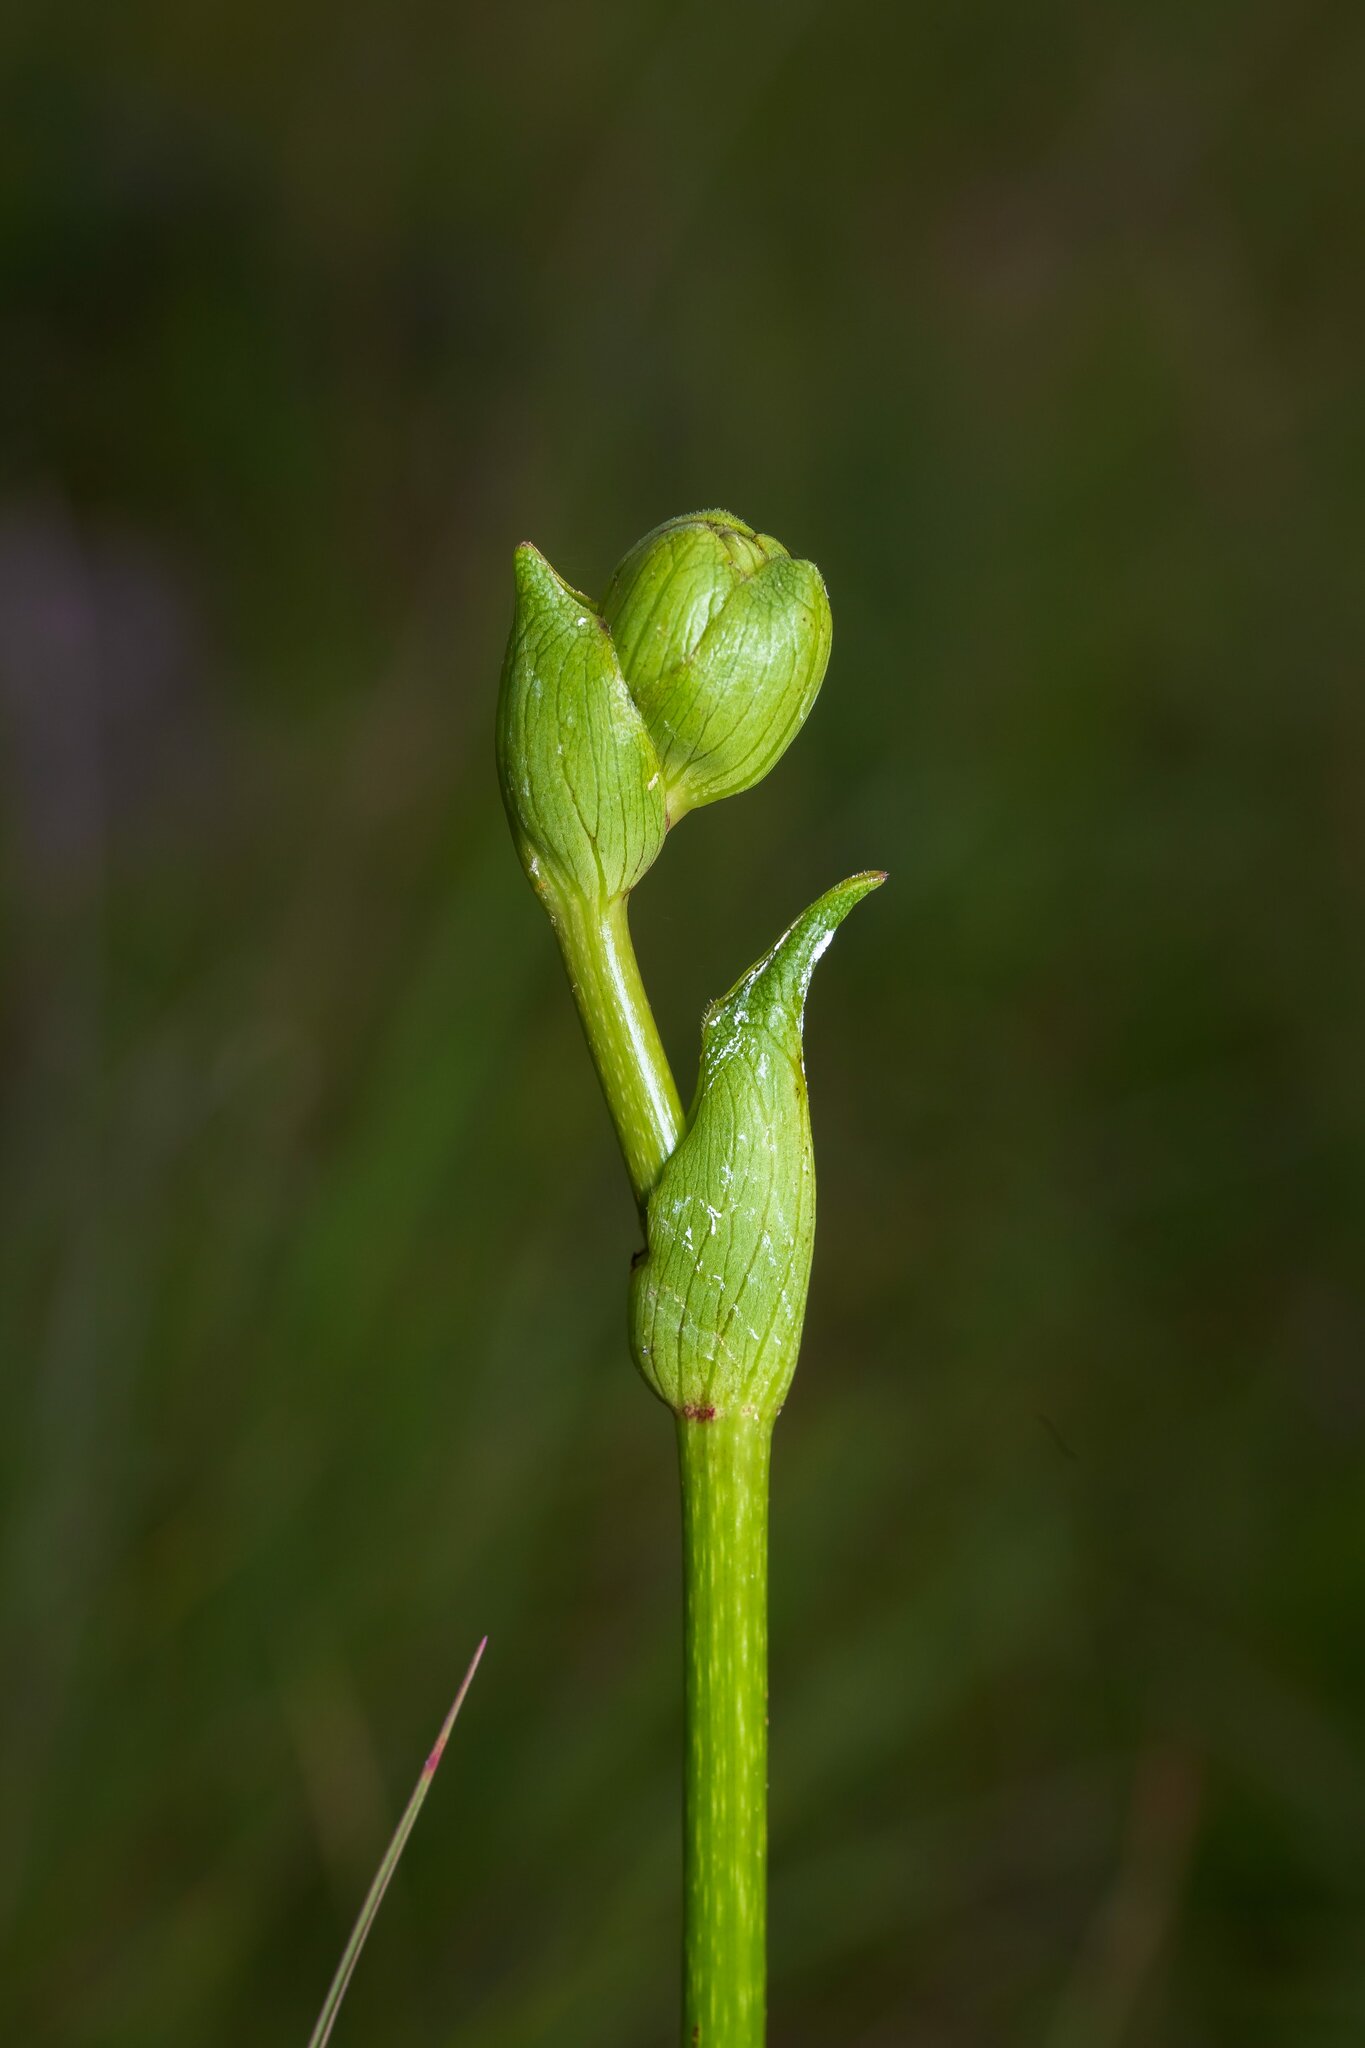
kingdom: Plantae
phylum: Tracheophyta
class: Magnoliopsida
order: Asterales
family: Asteraceae
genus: Silphium
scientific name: Silphium terebinthinaceum
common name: Basal-leaf rosinweed
